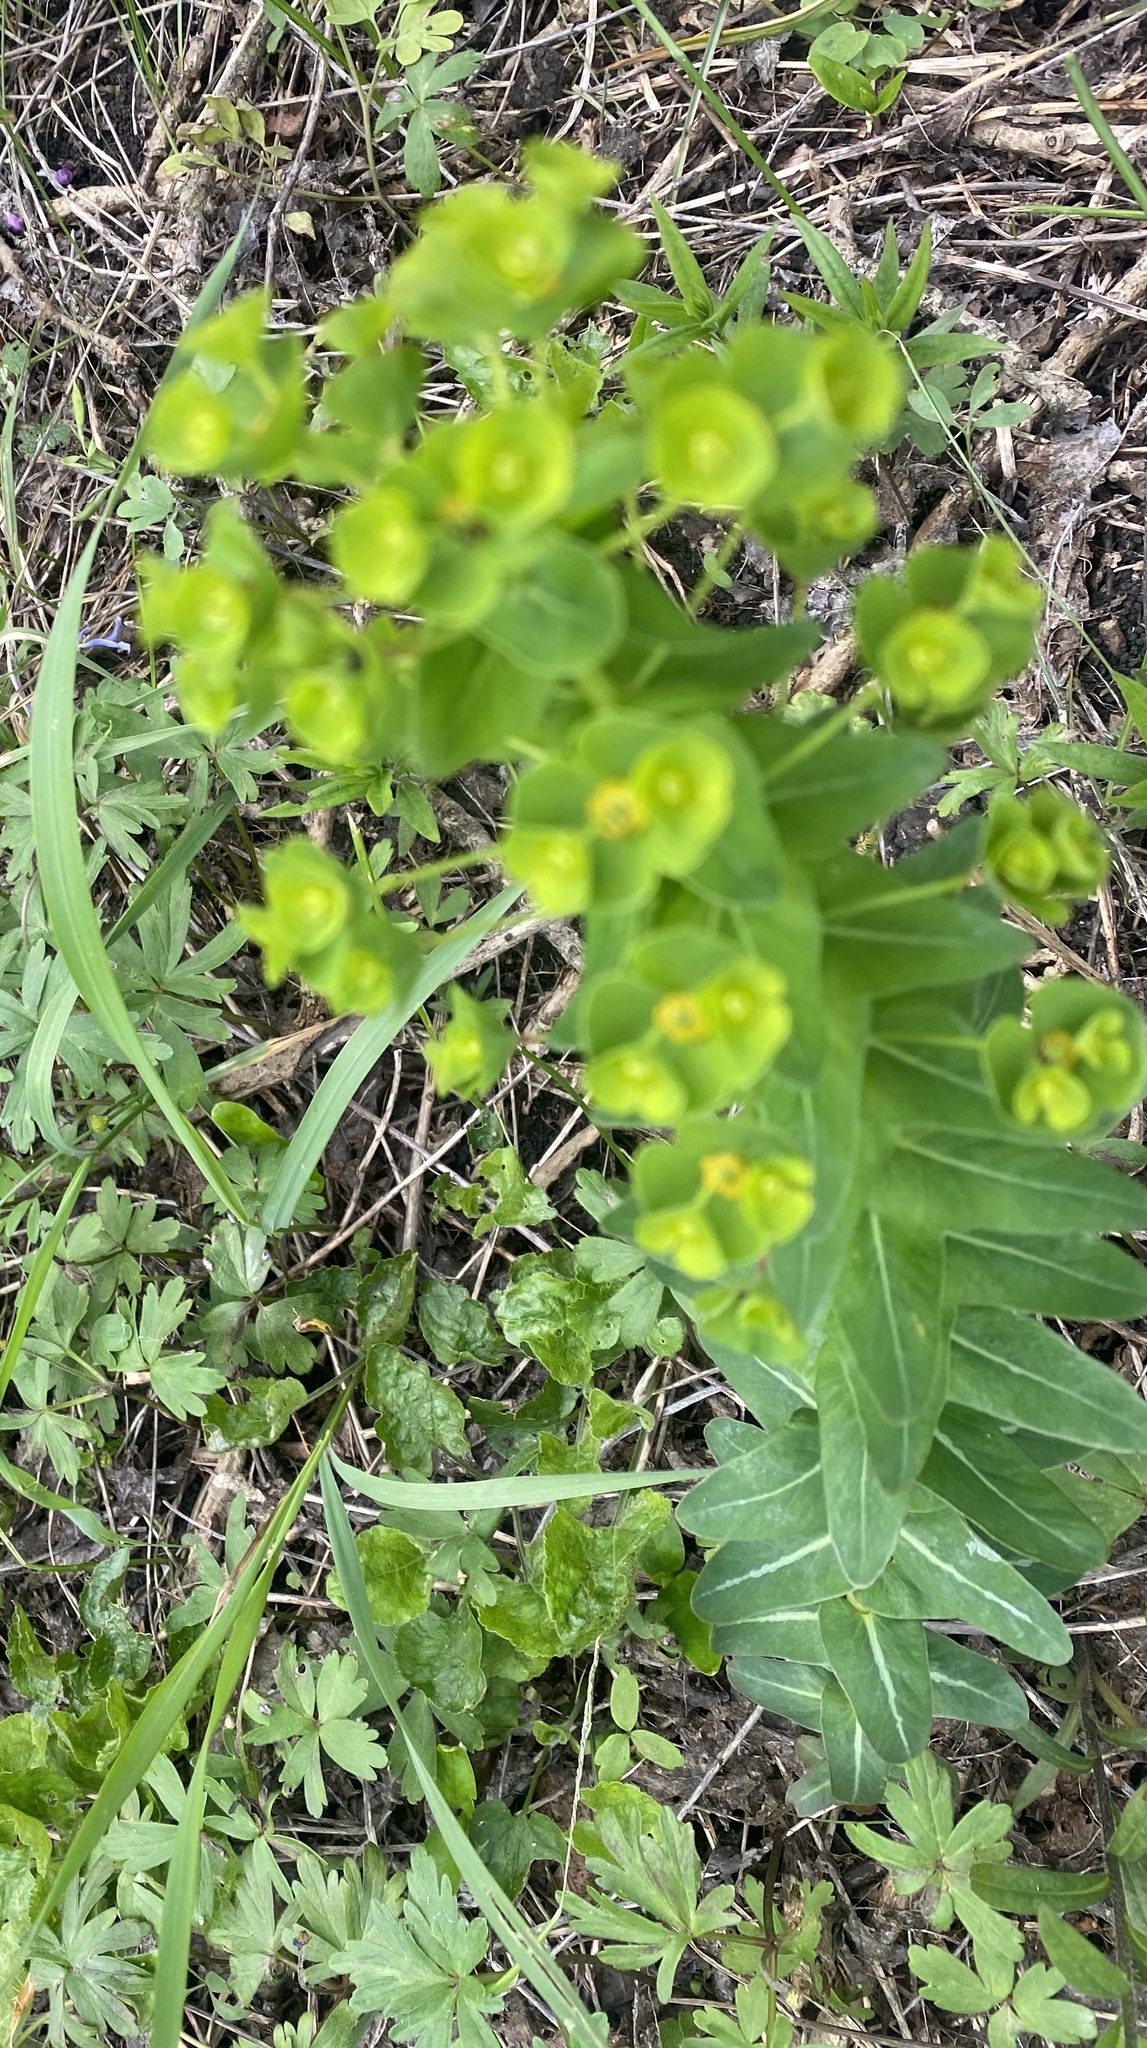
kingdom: Plantae
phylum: Tracheophyta
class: Magnoliopsida
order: Malpighiales
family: Euphorbiaceae
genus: Euphorbia
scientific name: Euphorbia condylocarpa
